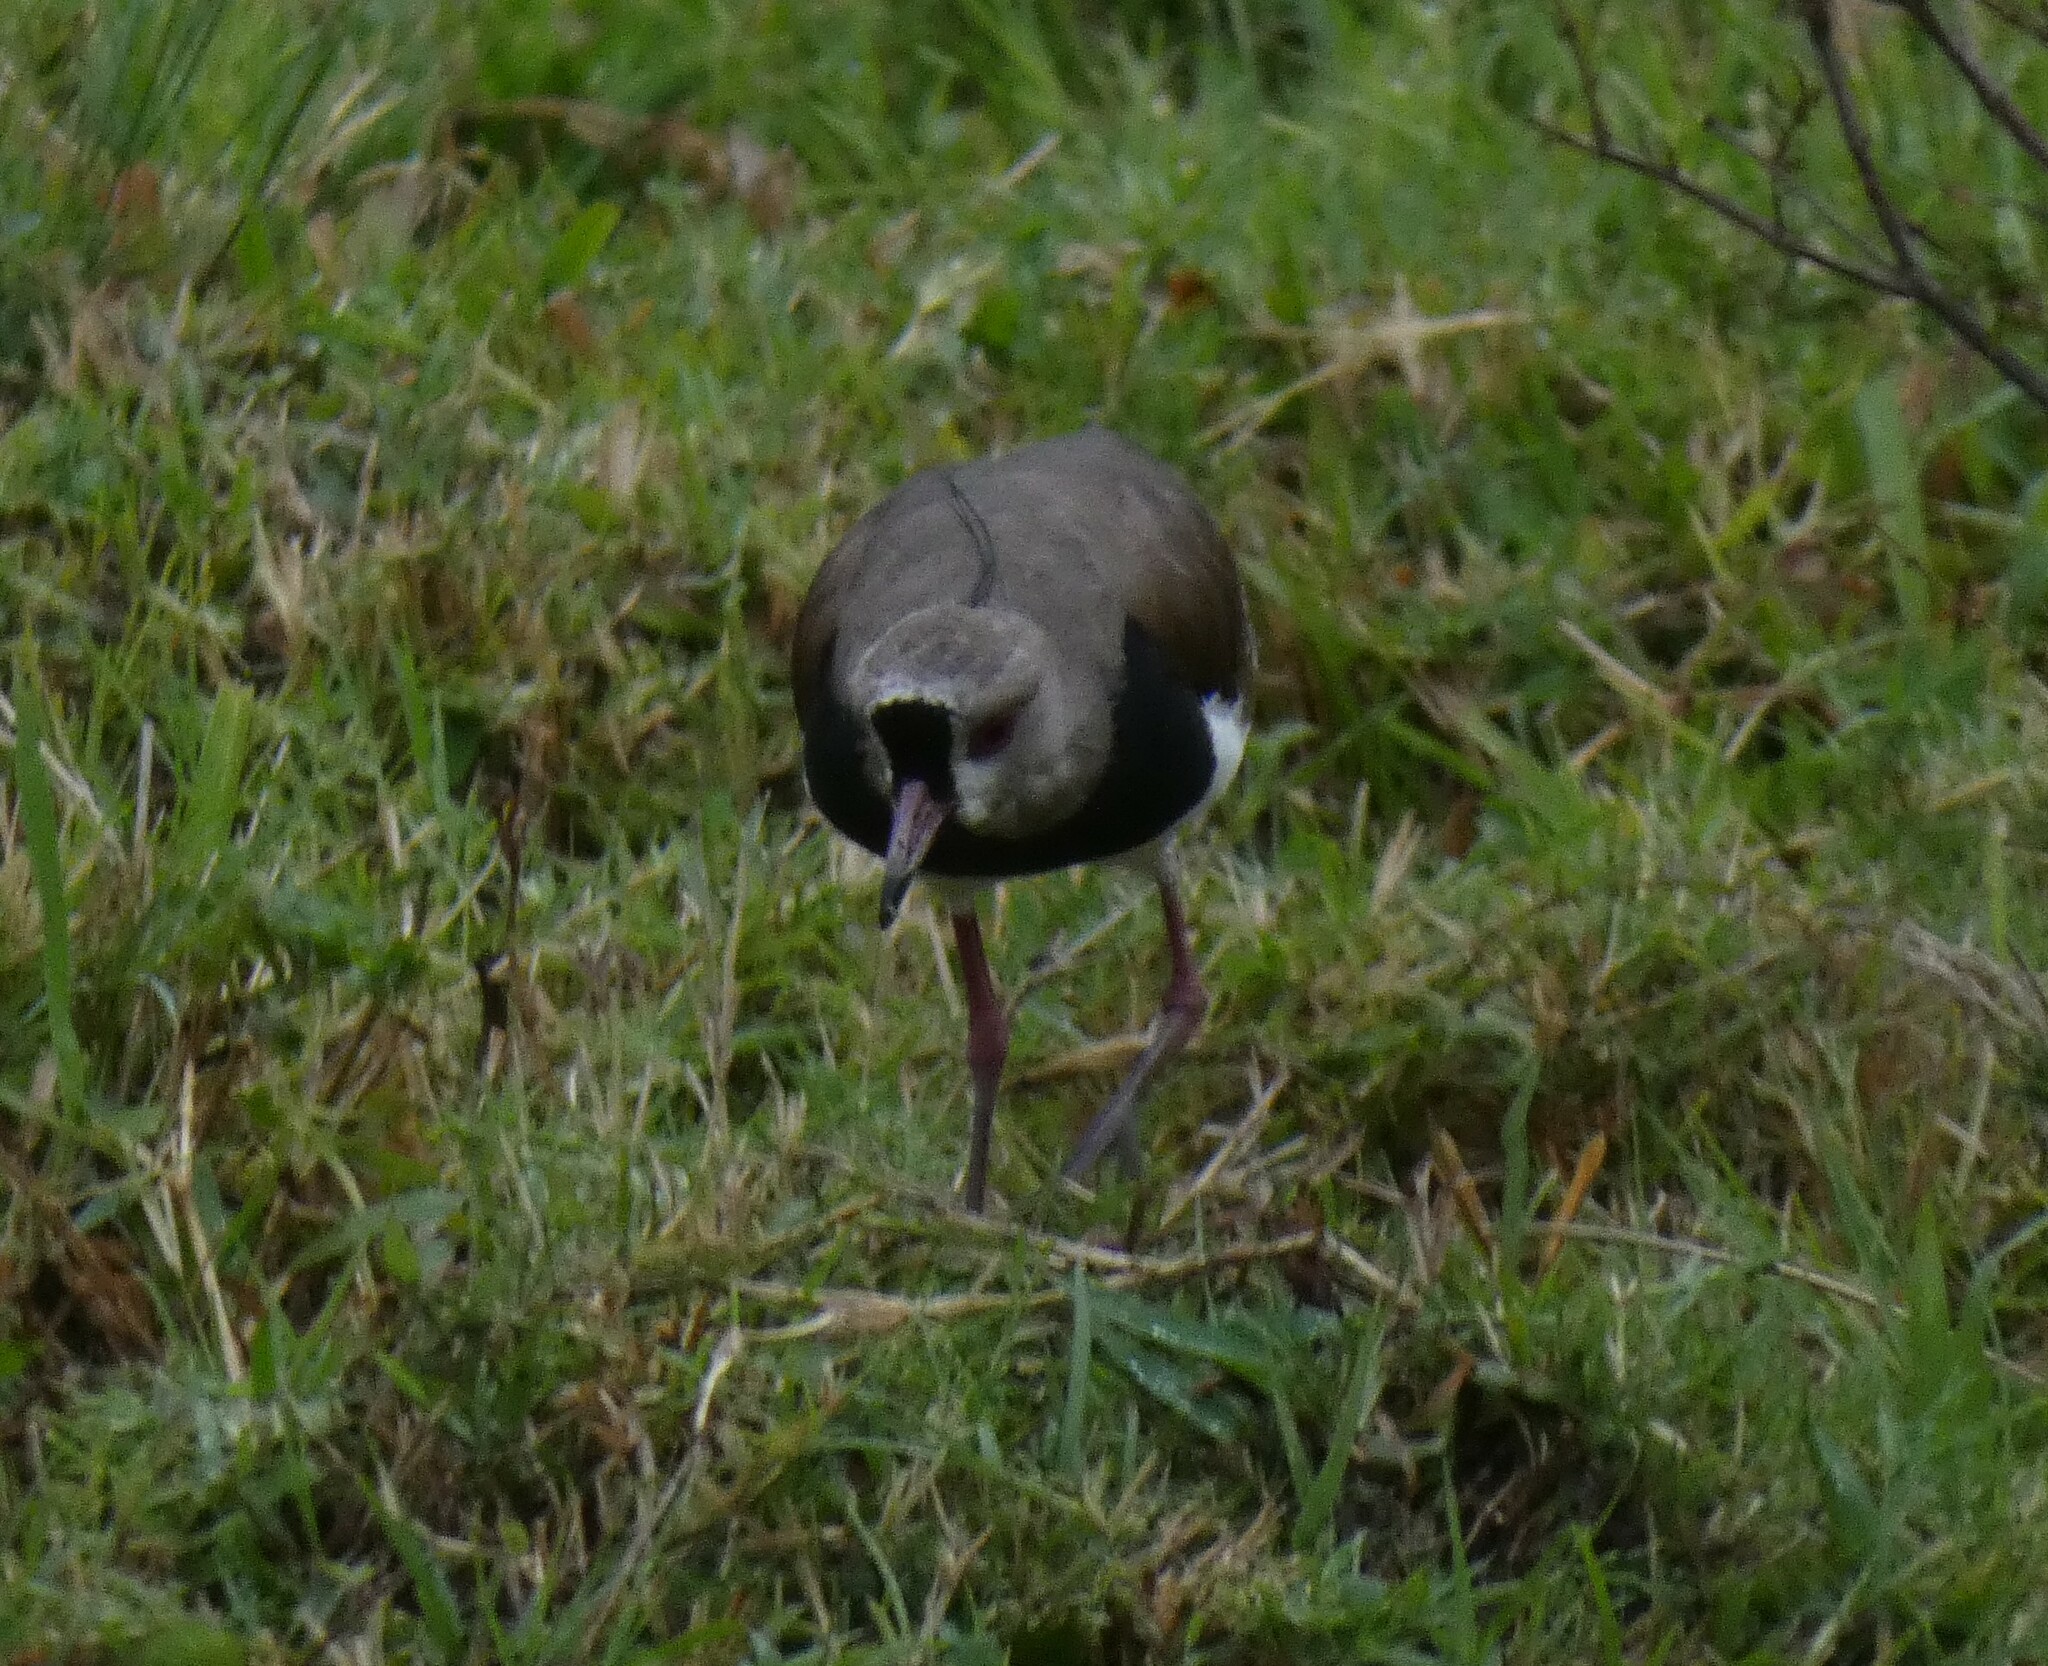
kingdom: Animalia
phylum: Chordata
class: Aves
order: Charadriiformes
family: Charadriidae
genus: Vanellus
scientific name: Vanellus chilensis
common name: Southern lapwing
